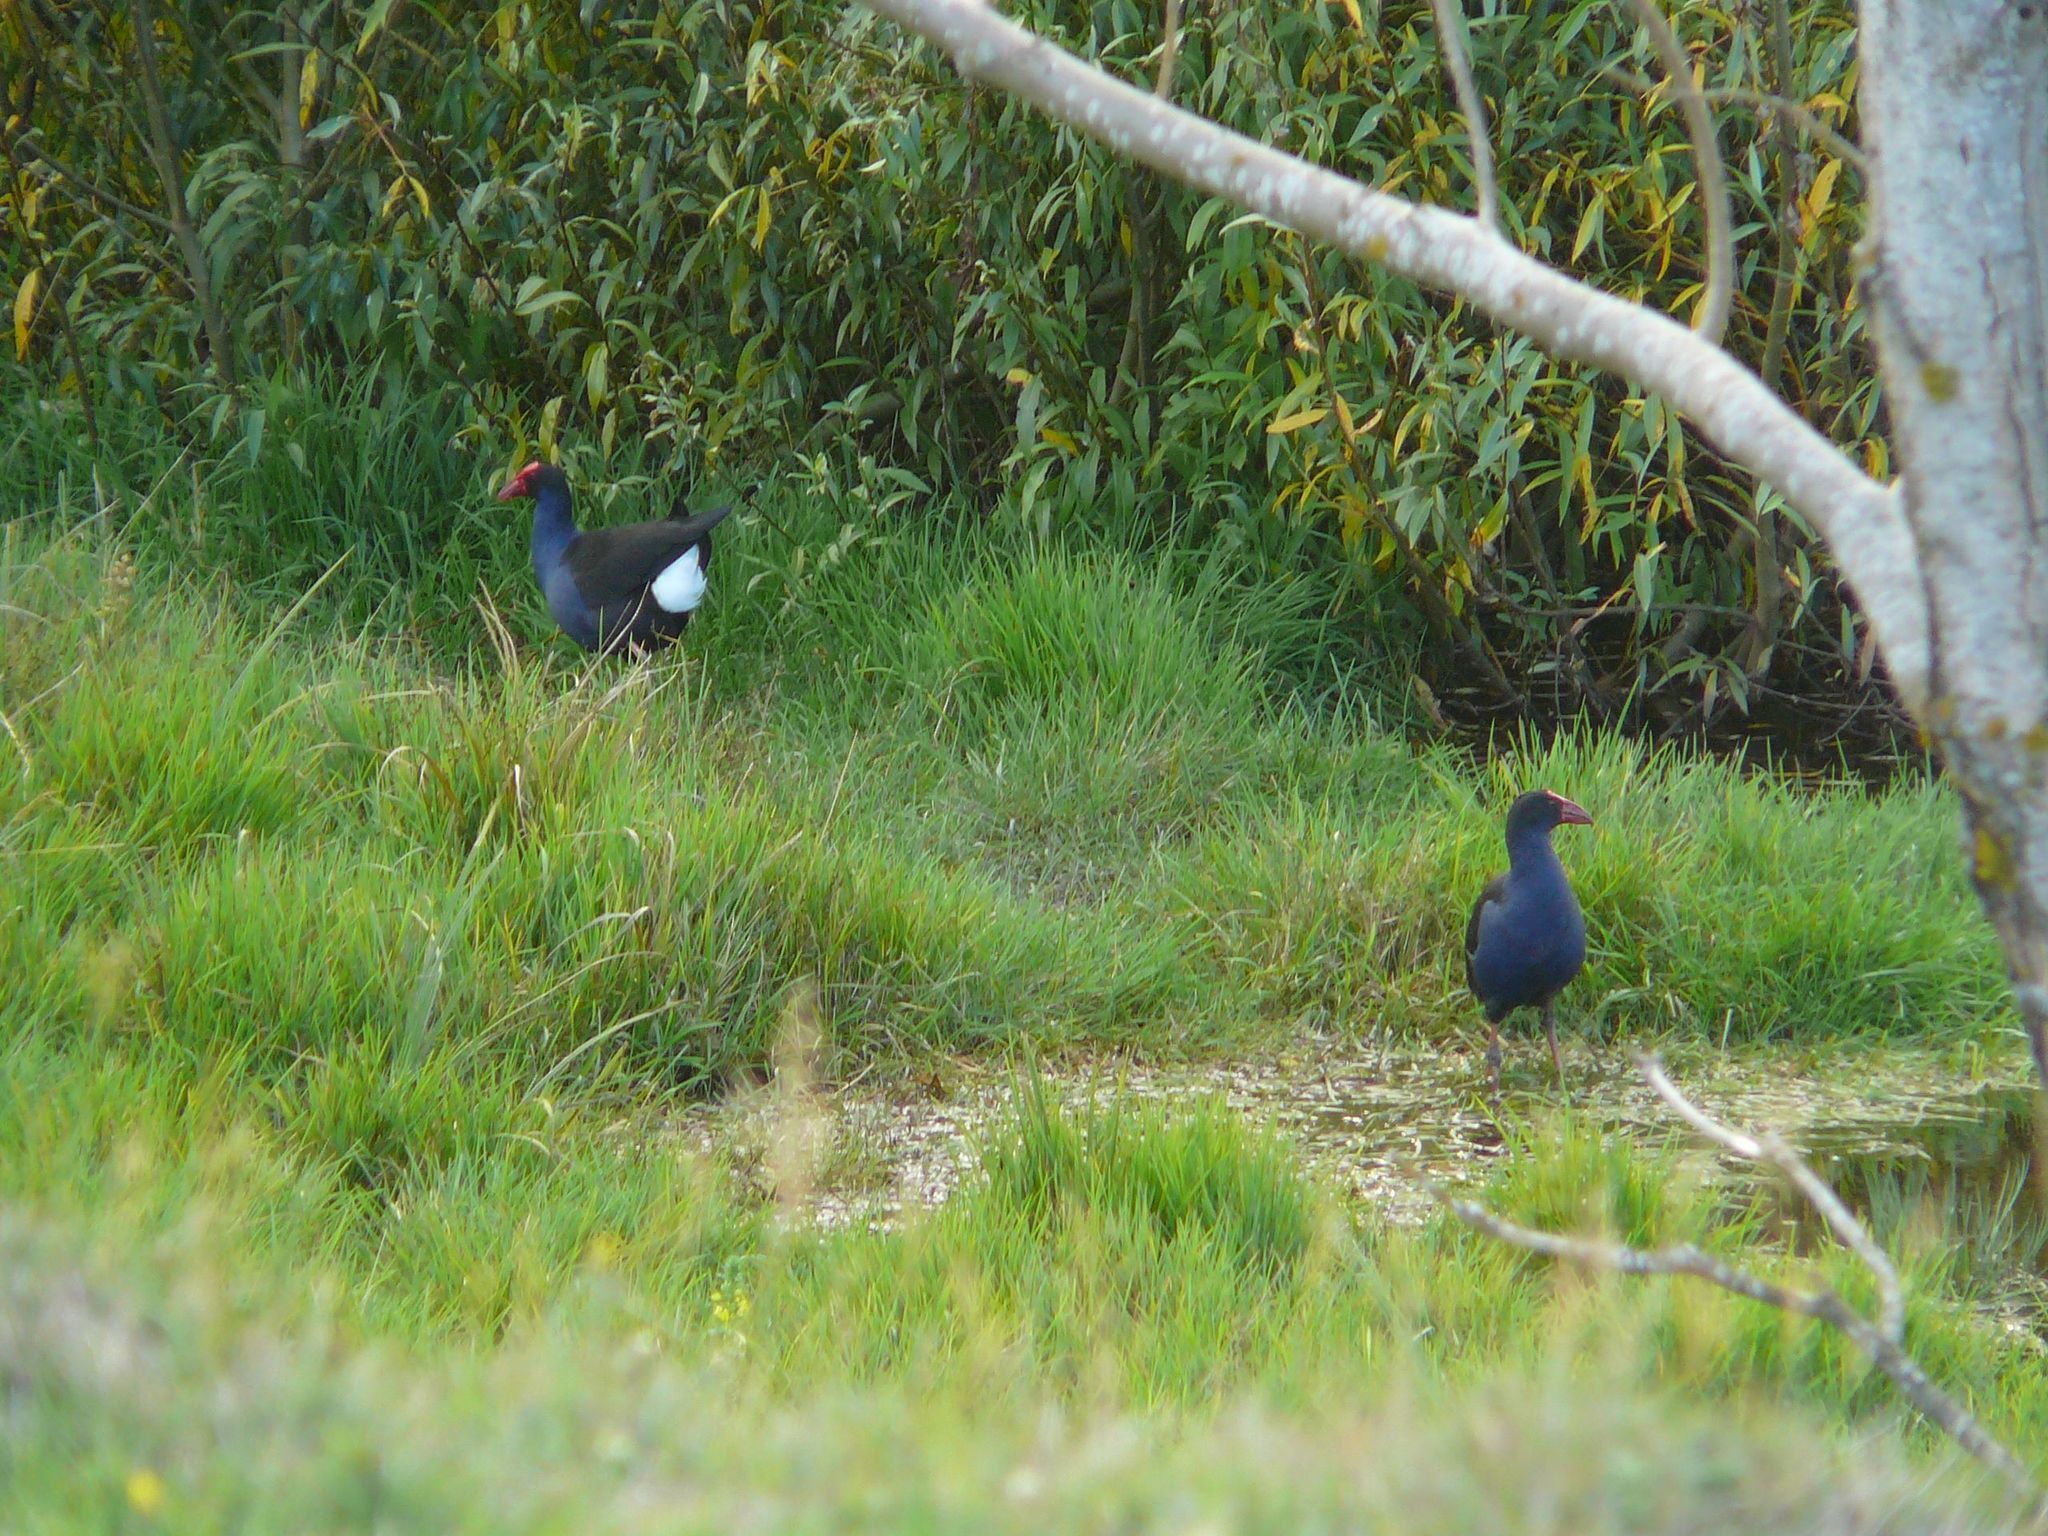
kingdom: Animalia
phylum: Chordata
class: Aves
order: Gruiformes
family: Rallidae
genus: Porphyrio
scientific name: Porphyrio melanotus
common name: Australasian swamphen
